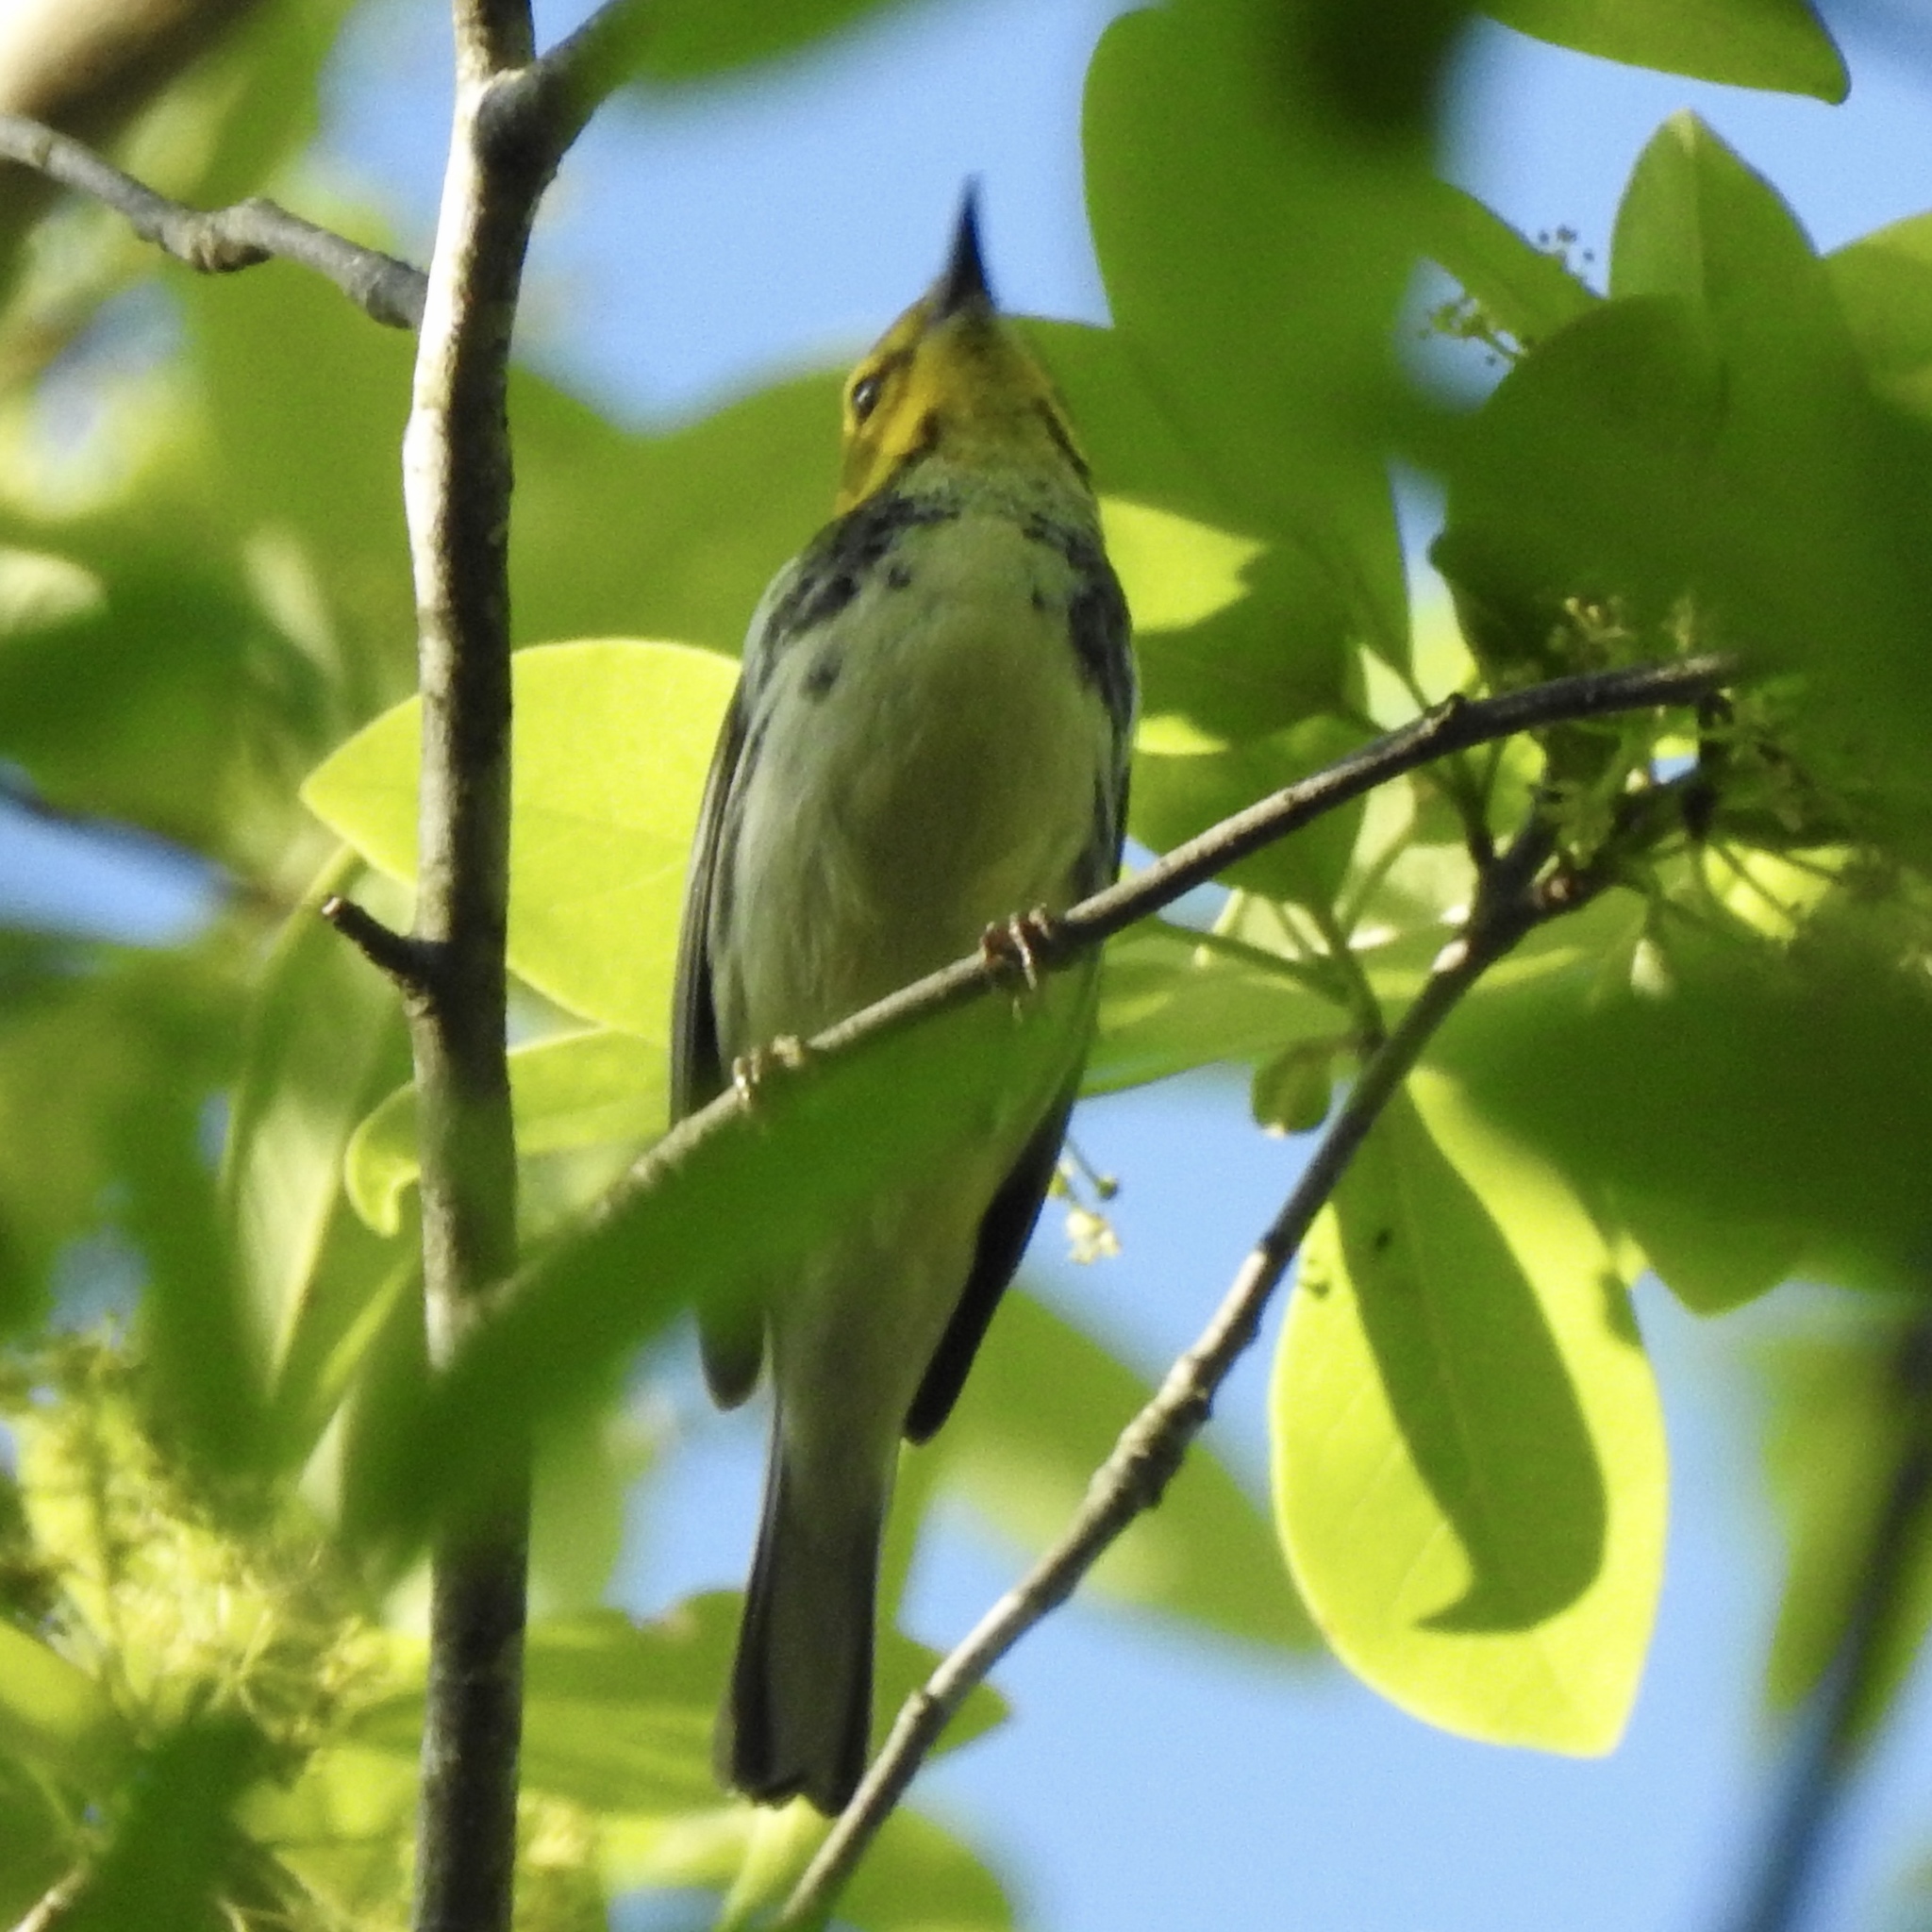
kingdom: Animalia
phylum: Chordata
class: Aves
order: Passeriformes
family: Parulidae
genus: Setophaga
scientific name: Setophaga virens
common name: Black-throated green warbler
